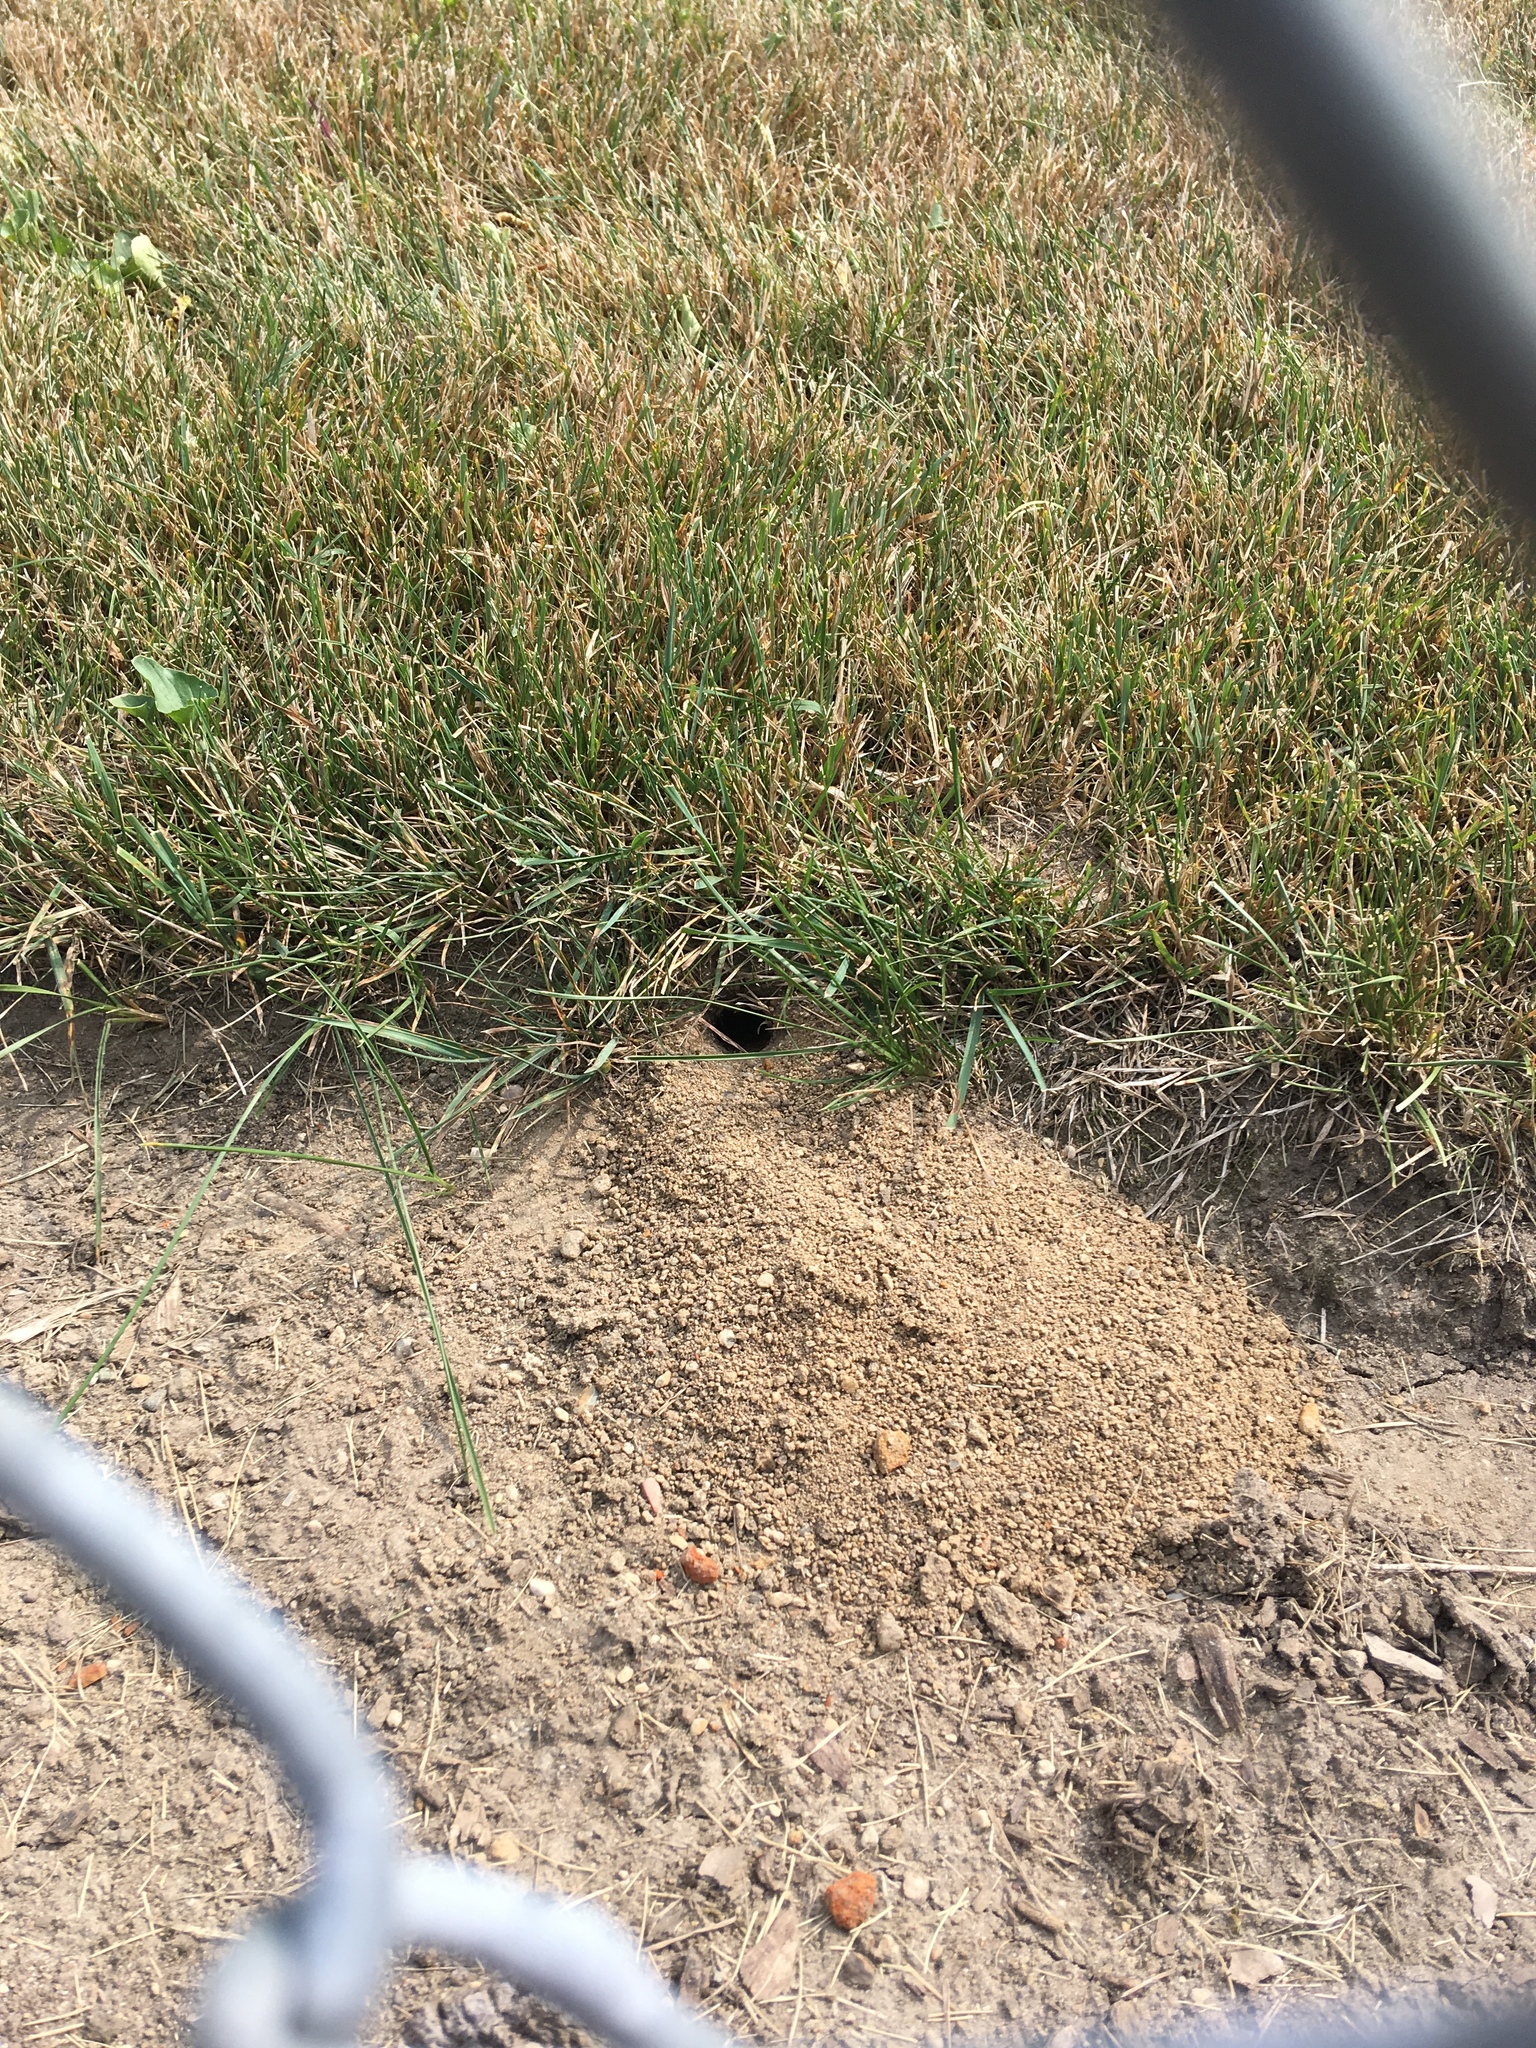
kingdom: Animalia
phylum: Arthropoda
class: Insecta
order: Hymenoptera
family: Crabronidae
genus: Sphecius
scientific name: Sphecius speciosus
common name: Cicada killer
